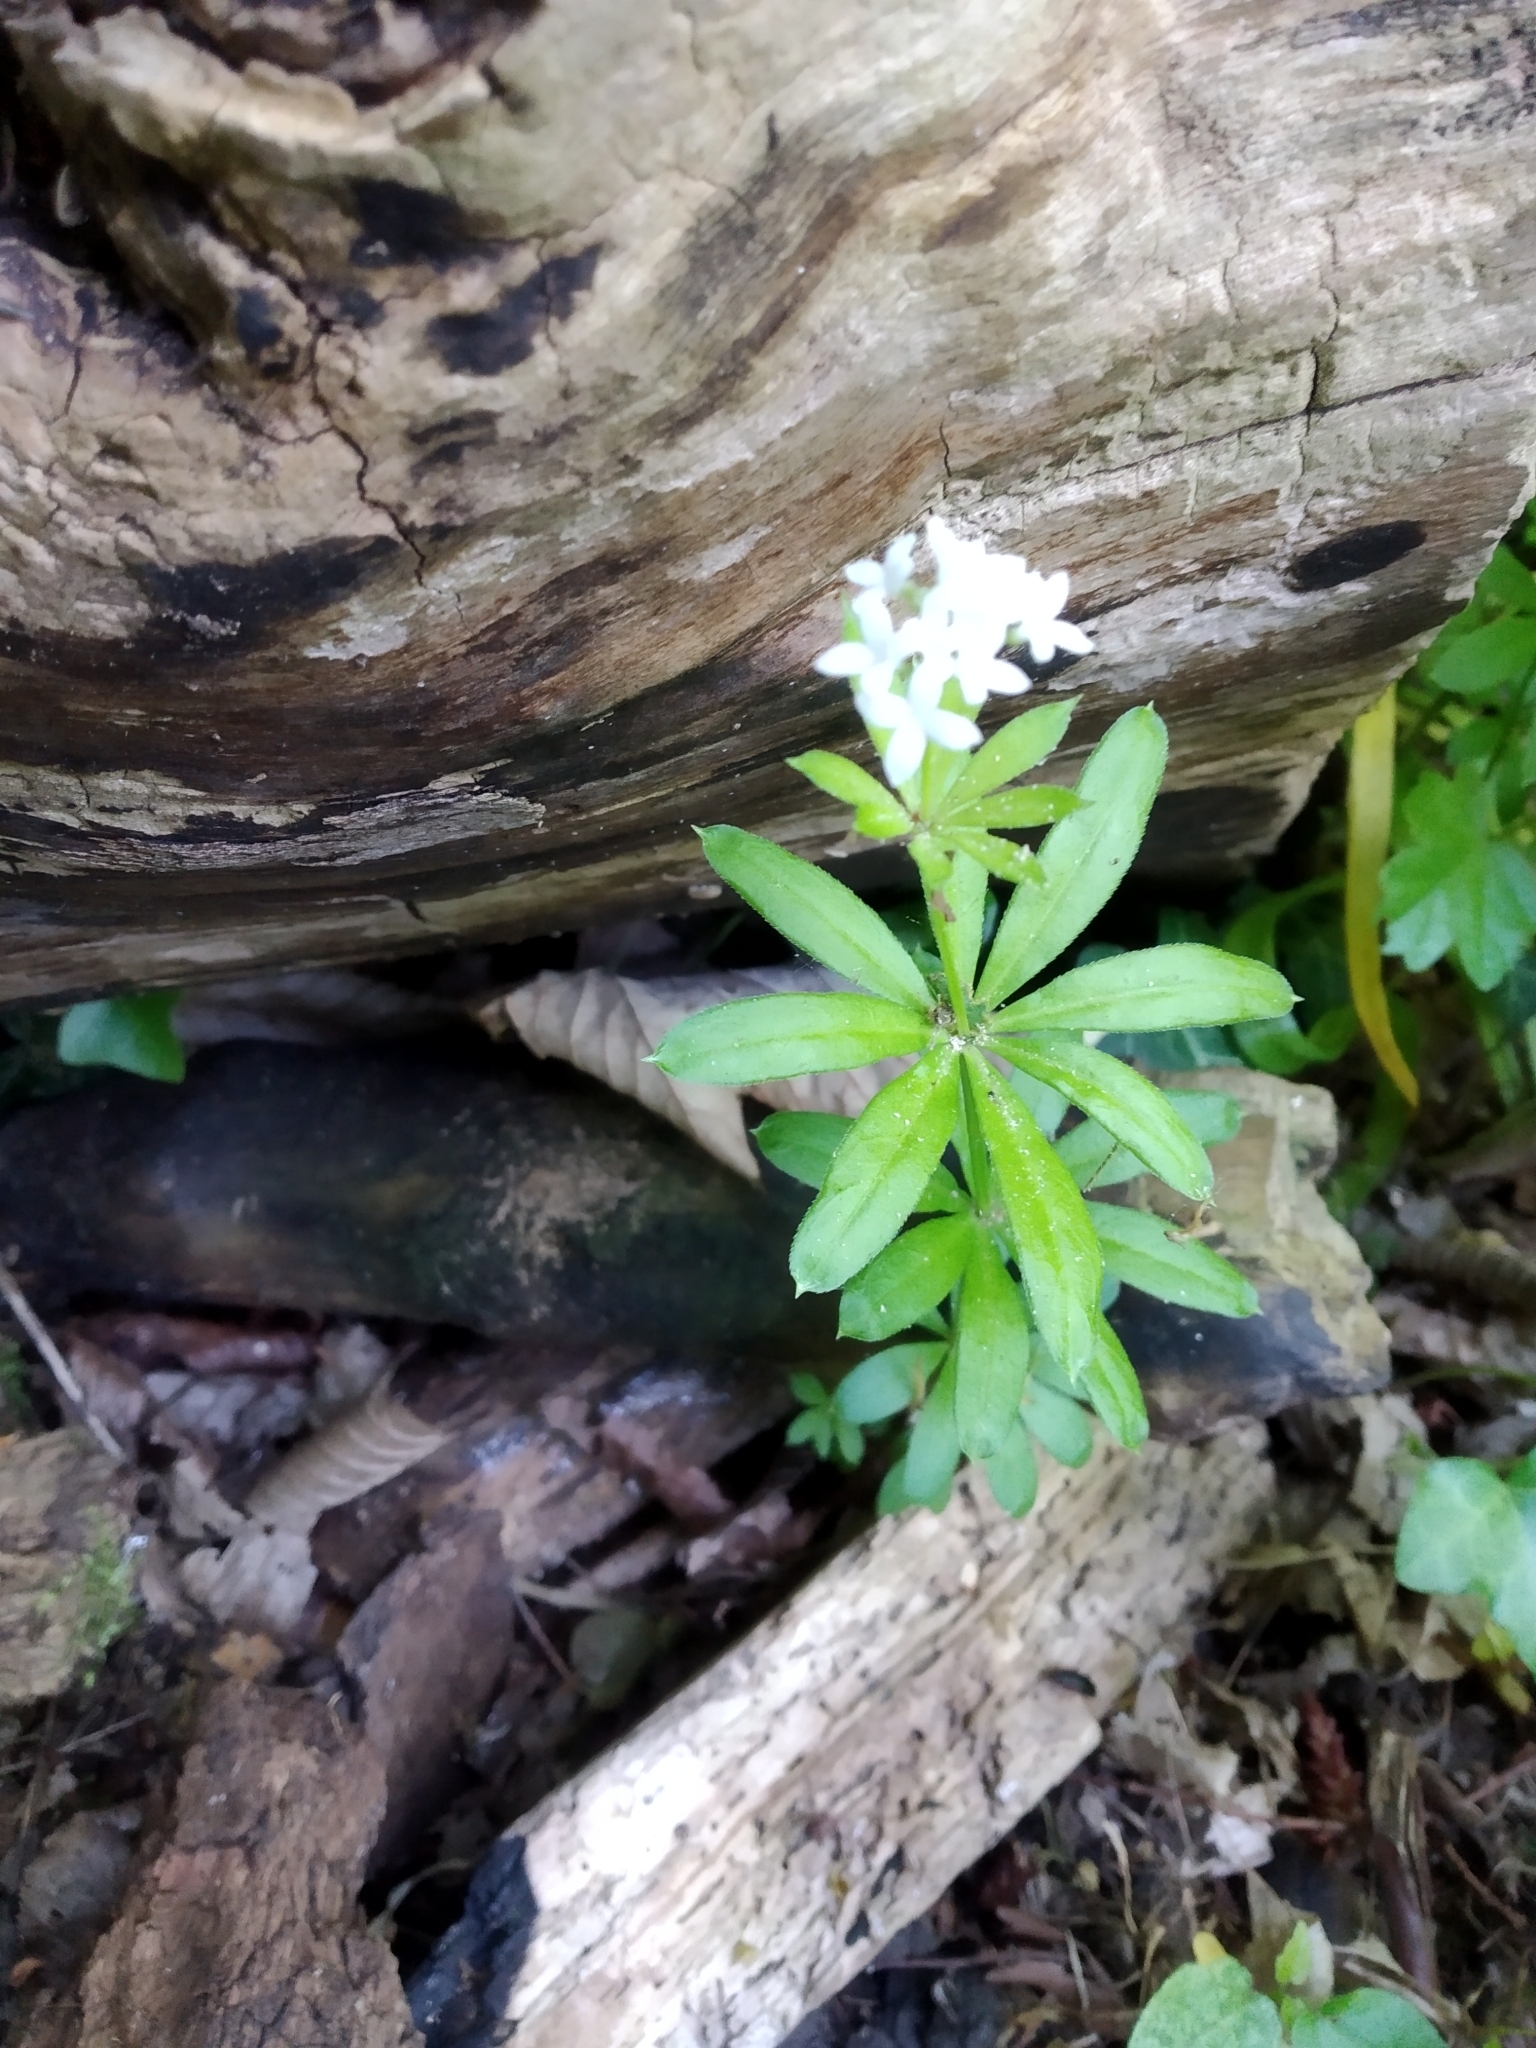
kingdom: Plantae
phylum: Tracheophyta
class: Magnoliopsida
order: Gentianales
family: Rubiaceae
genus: Galium
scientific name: Galium odoratum
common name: Sweet woodruff
